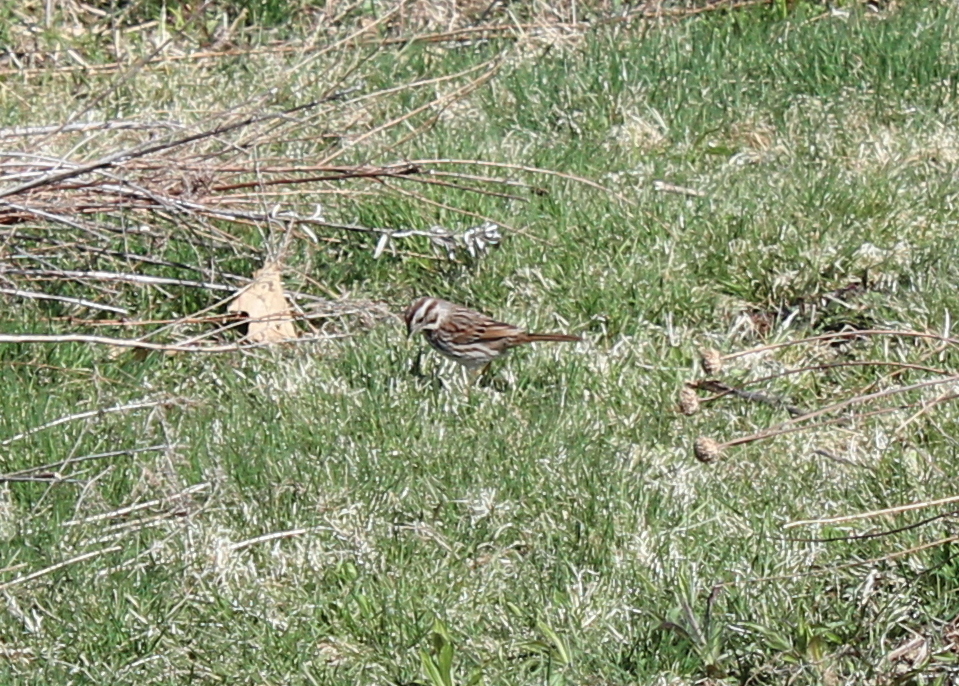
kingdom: Animalia
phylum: Chordata
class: Aves
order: Passeriformes
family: Passerellidae
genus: Melospiza
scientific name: Melospiza melodia
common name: Song sparrow
